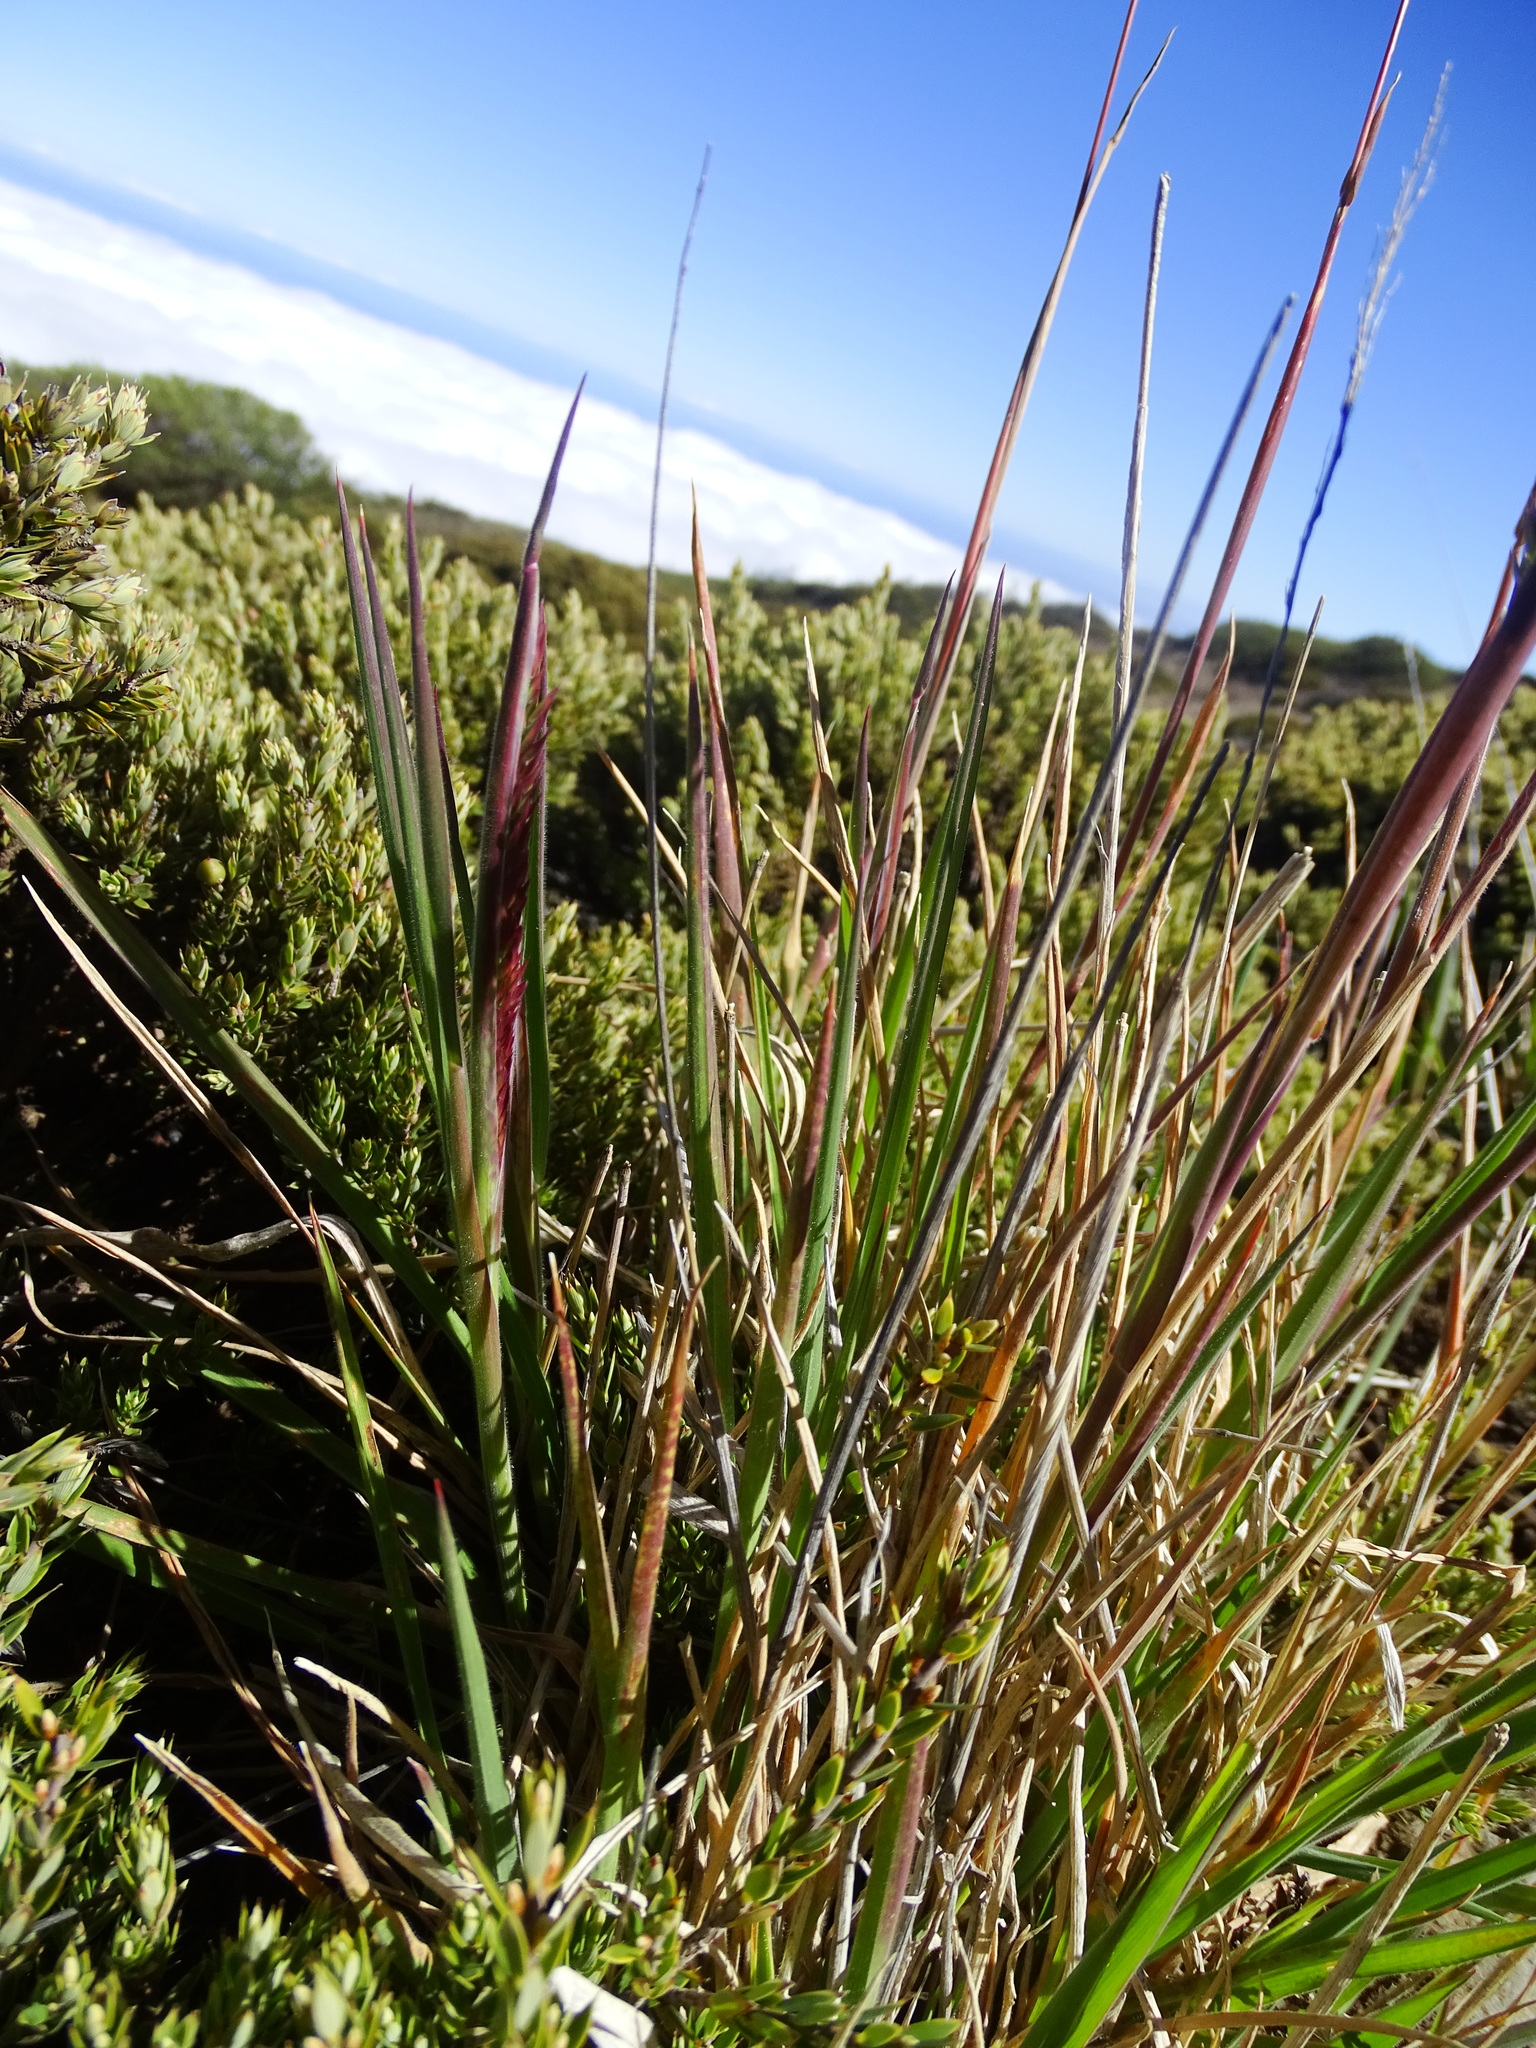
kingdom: Plantae
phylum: Tracheophyta
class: Liliopsida
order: Poales
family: Poaceae
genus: Holcus
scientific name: Holcus lanatus
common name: Yorkshire-fog
